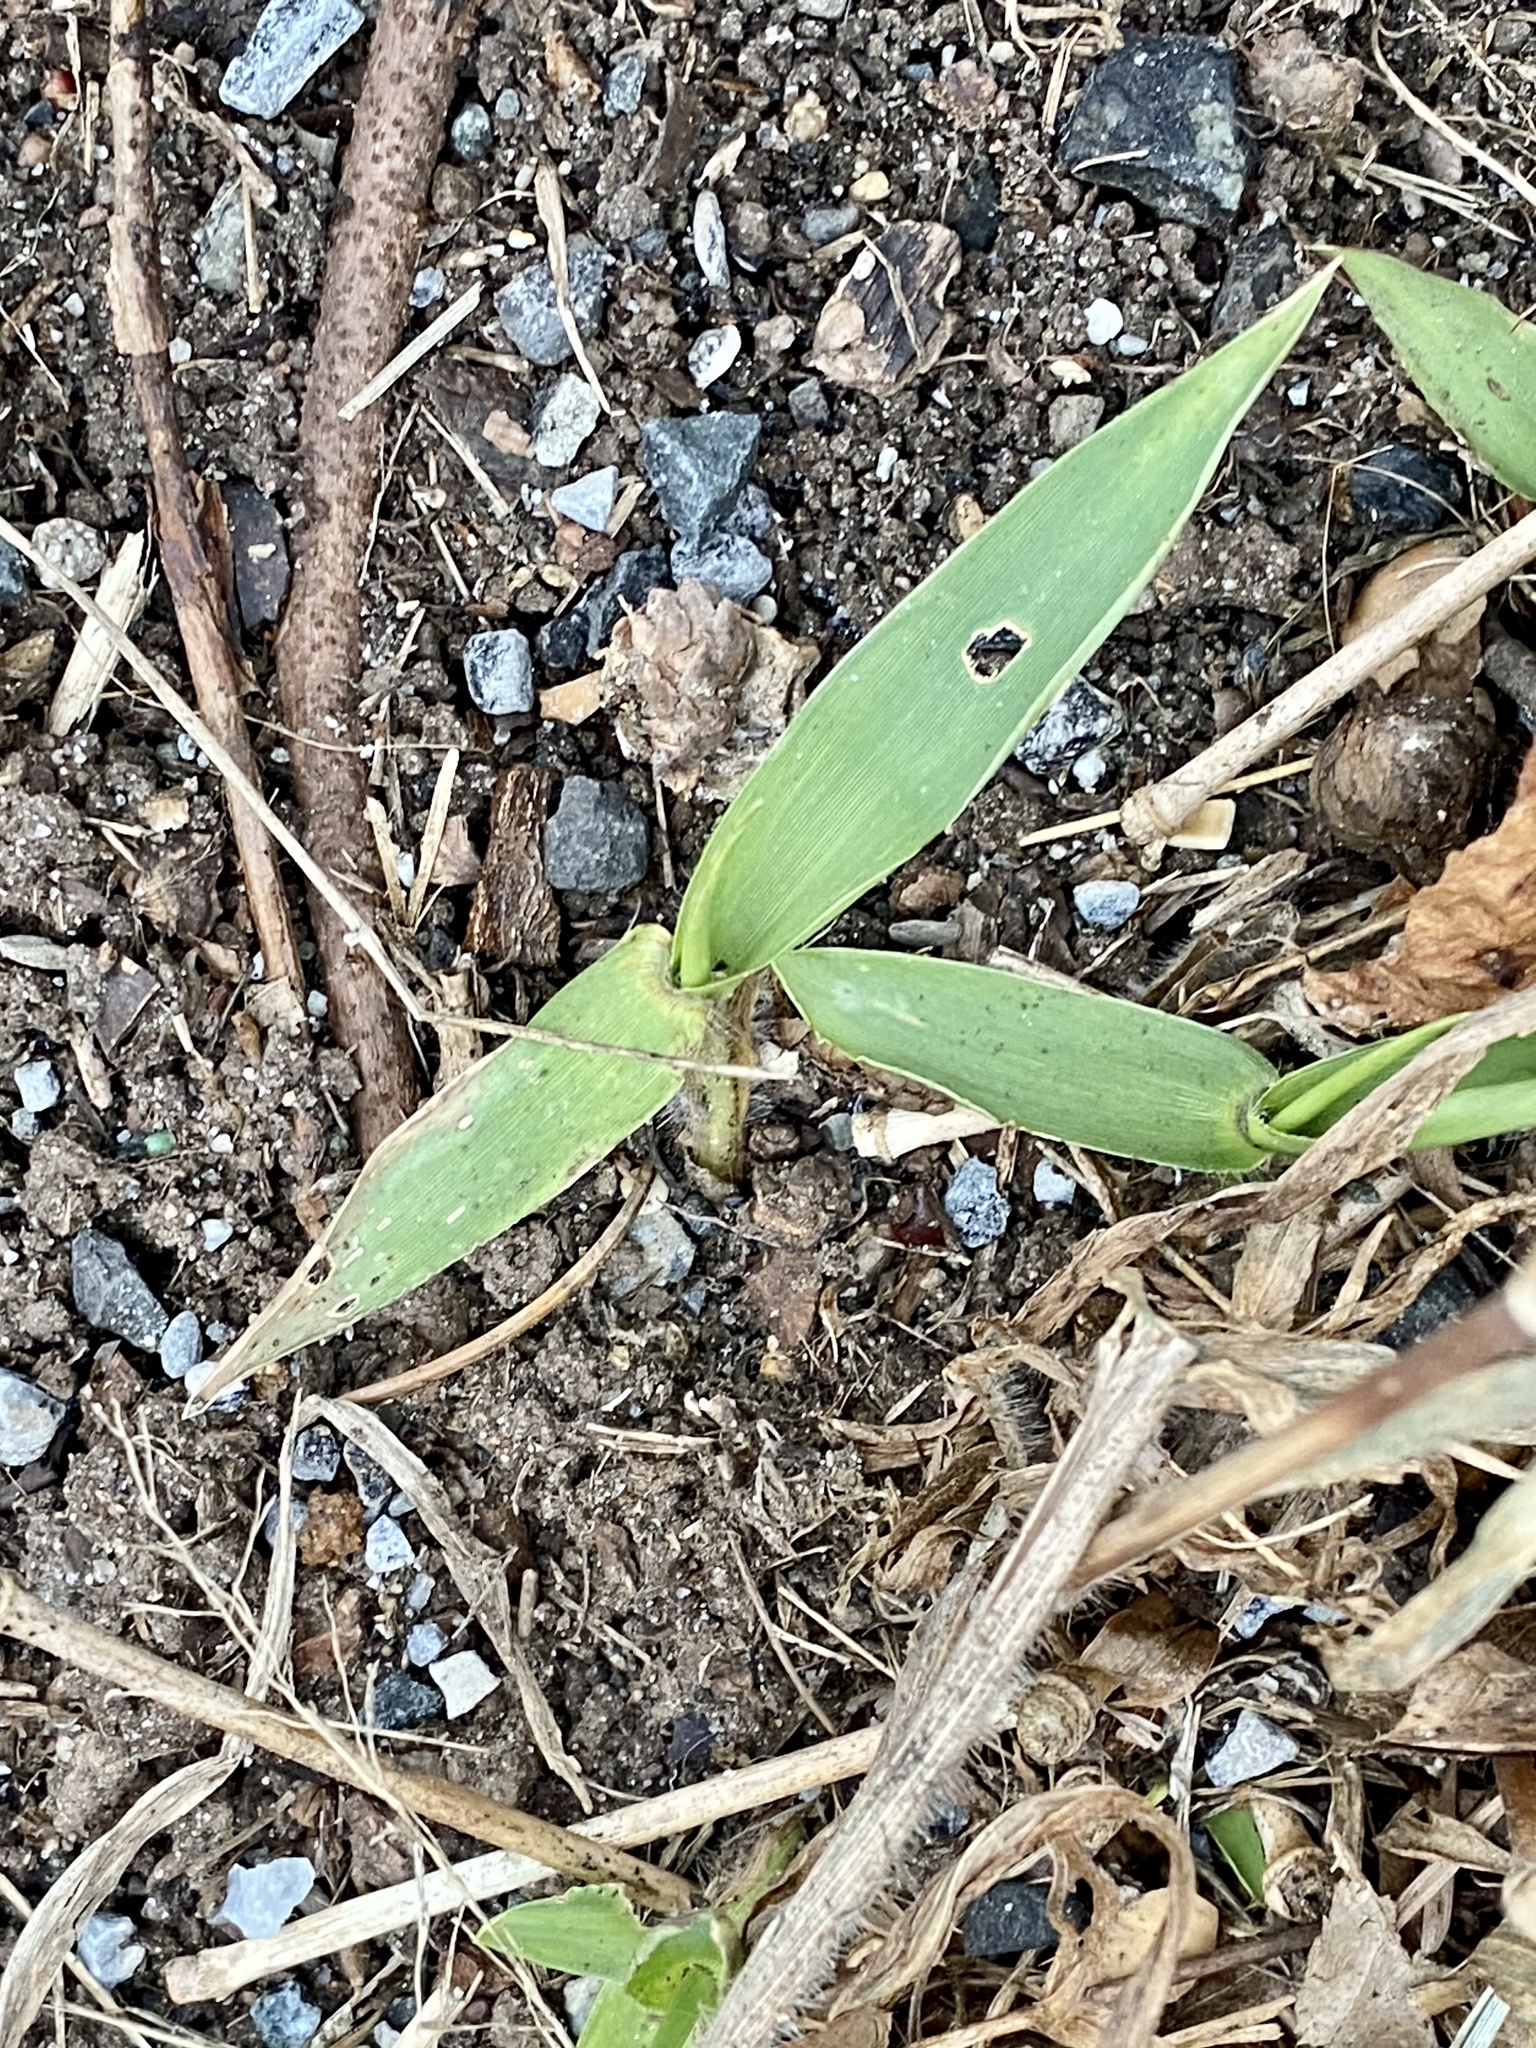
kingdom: Plantae
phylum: Tracheophyta
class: Liliopsida
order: Poales
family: Poaceae
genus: Dichanthelium
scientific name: Dichanthelium clandestinum
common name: Deer-tongue grass
